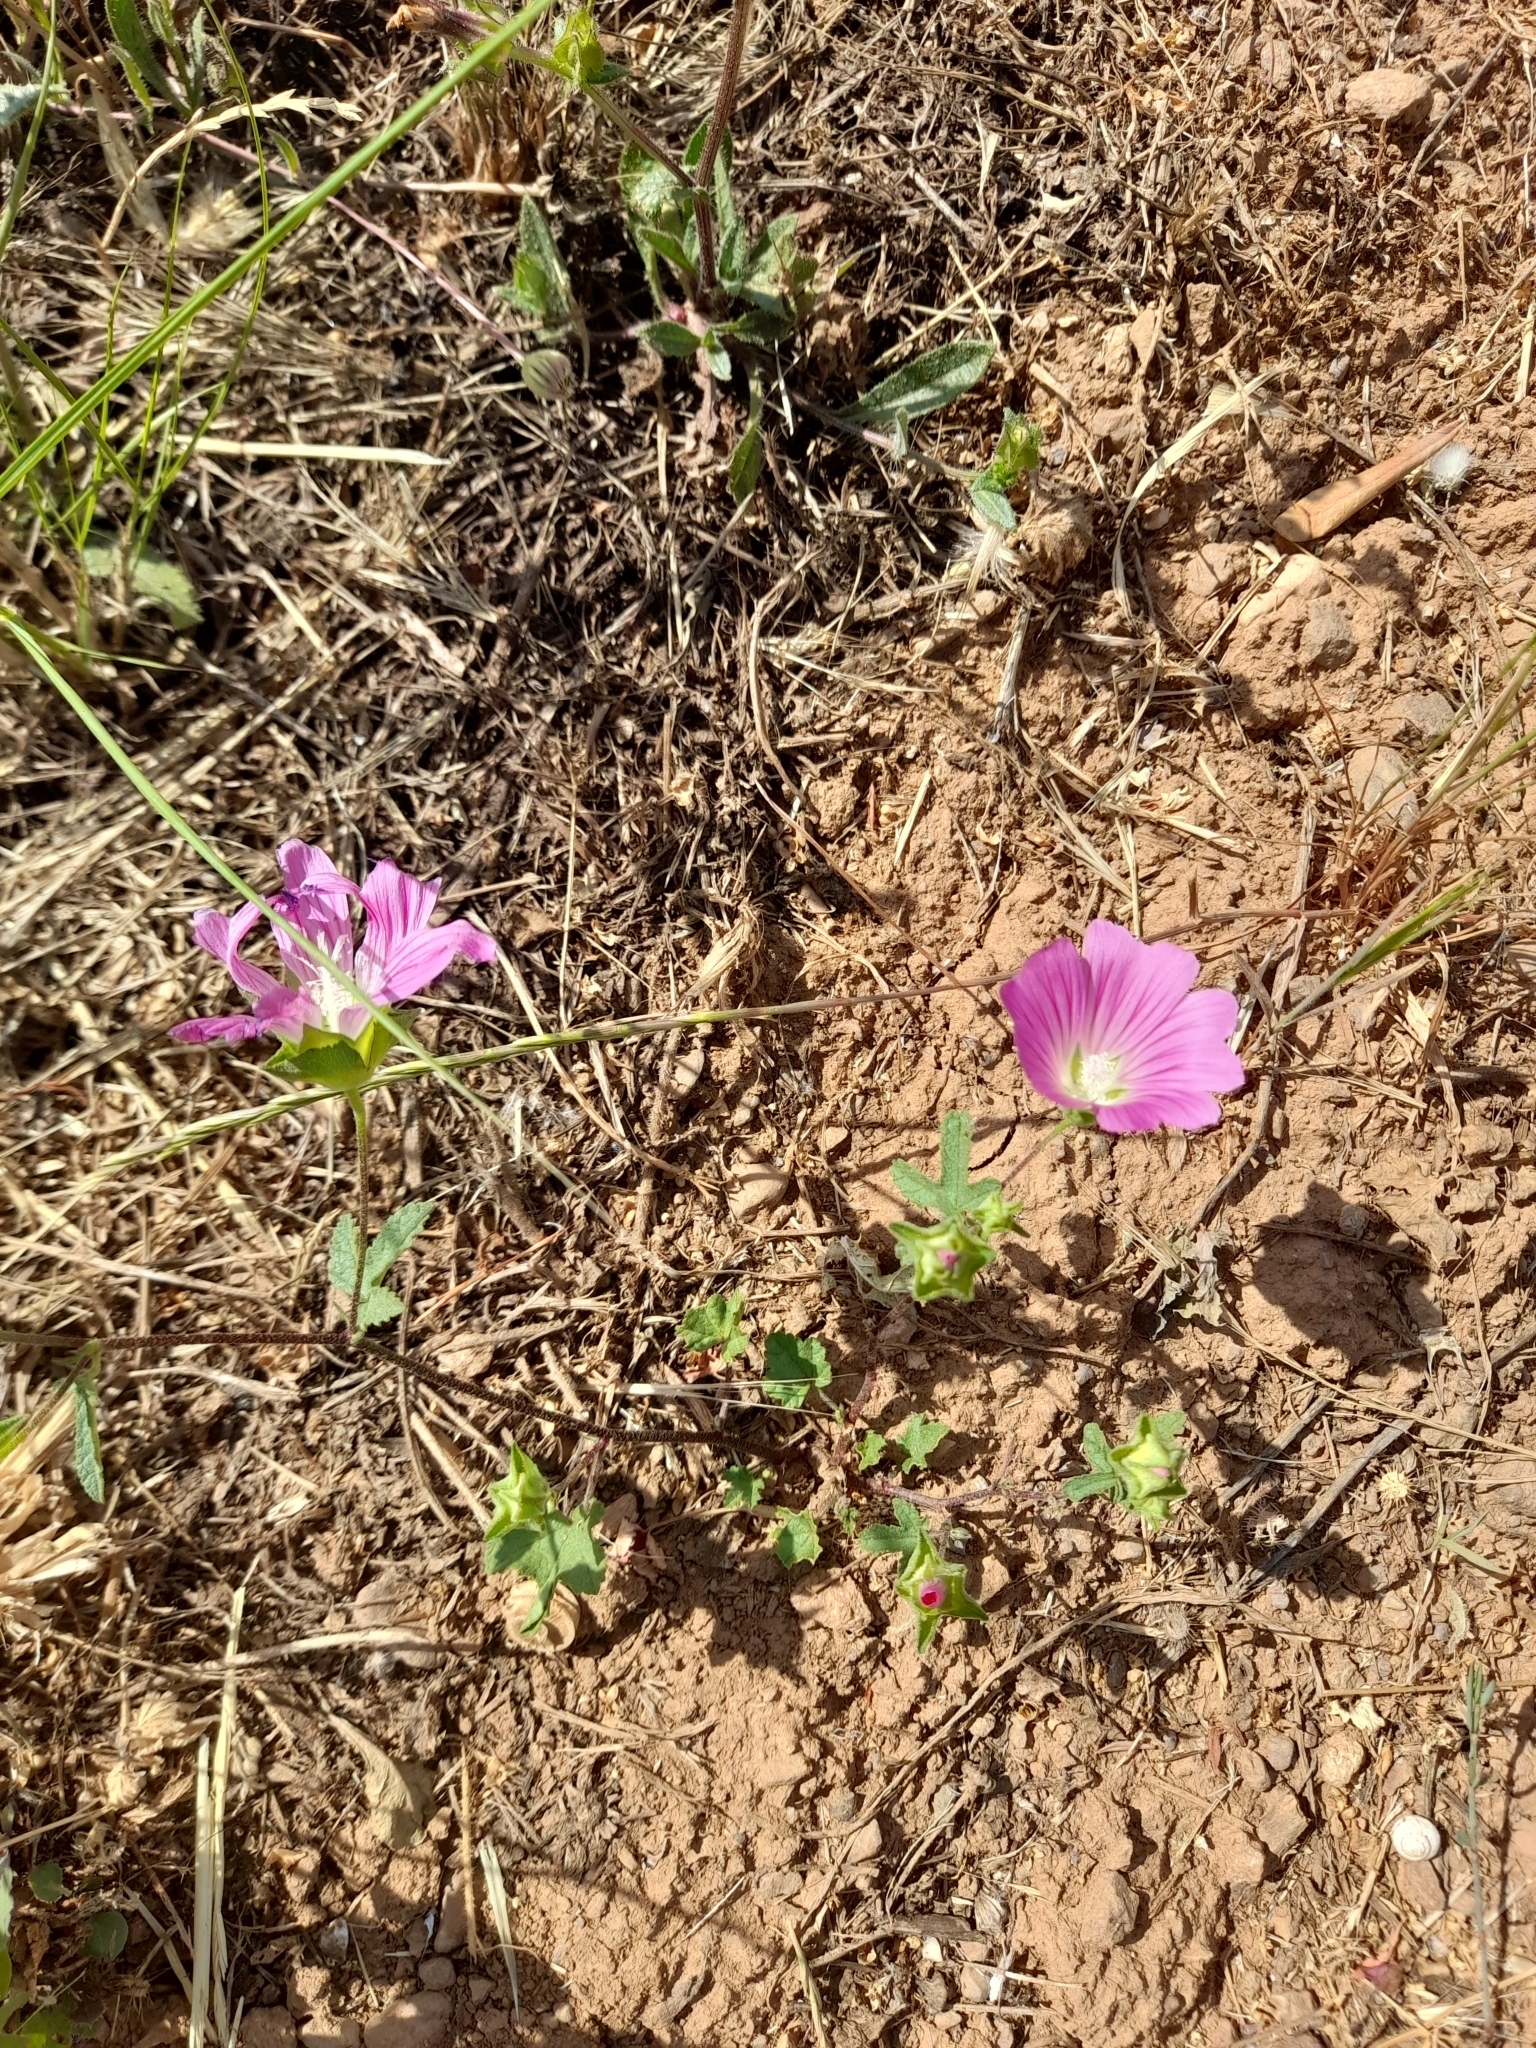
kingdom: Plantae
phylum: Tracheophyta
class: Magnoliopsida
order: Malvales
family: Malvaceae
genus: Malva
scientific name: Malva punctata
